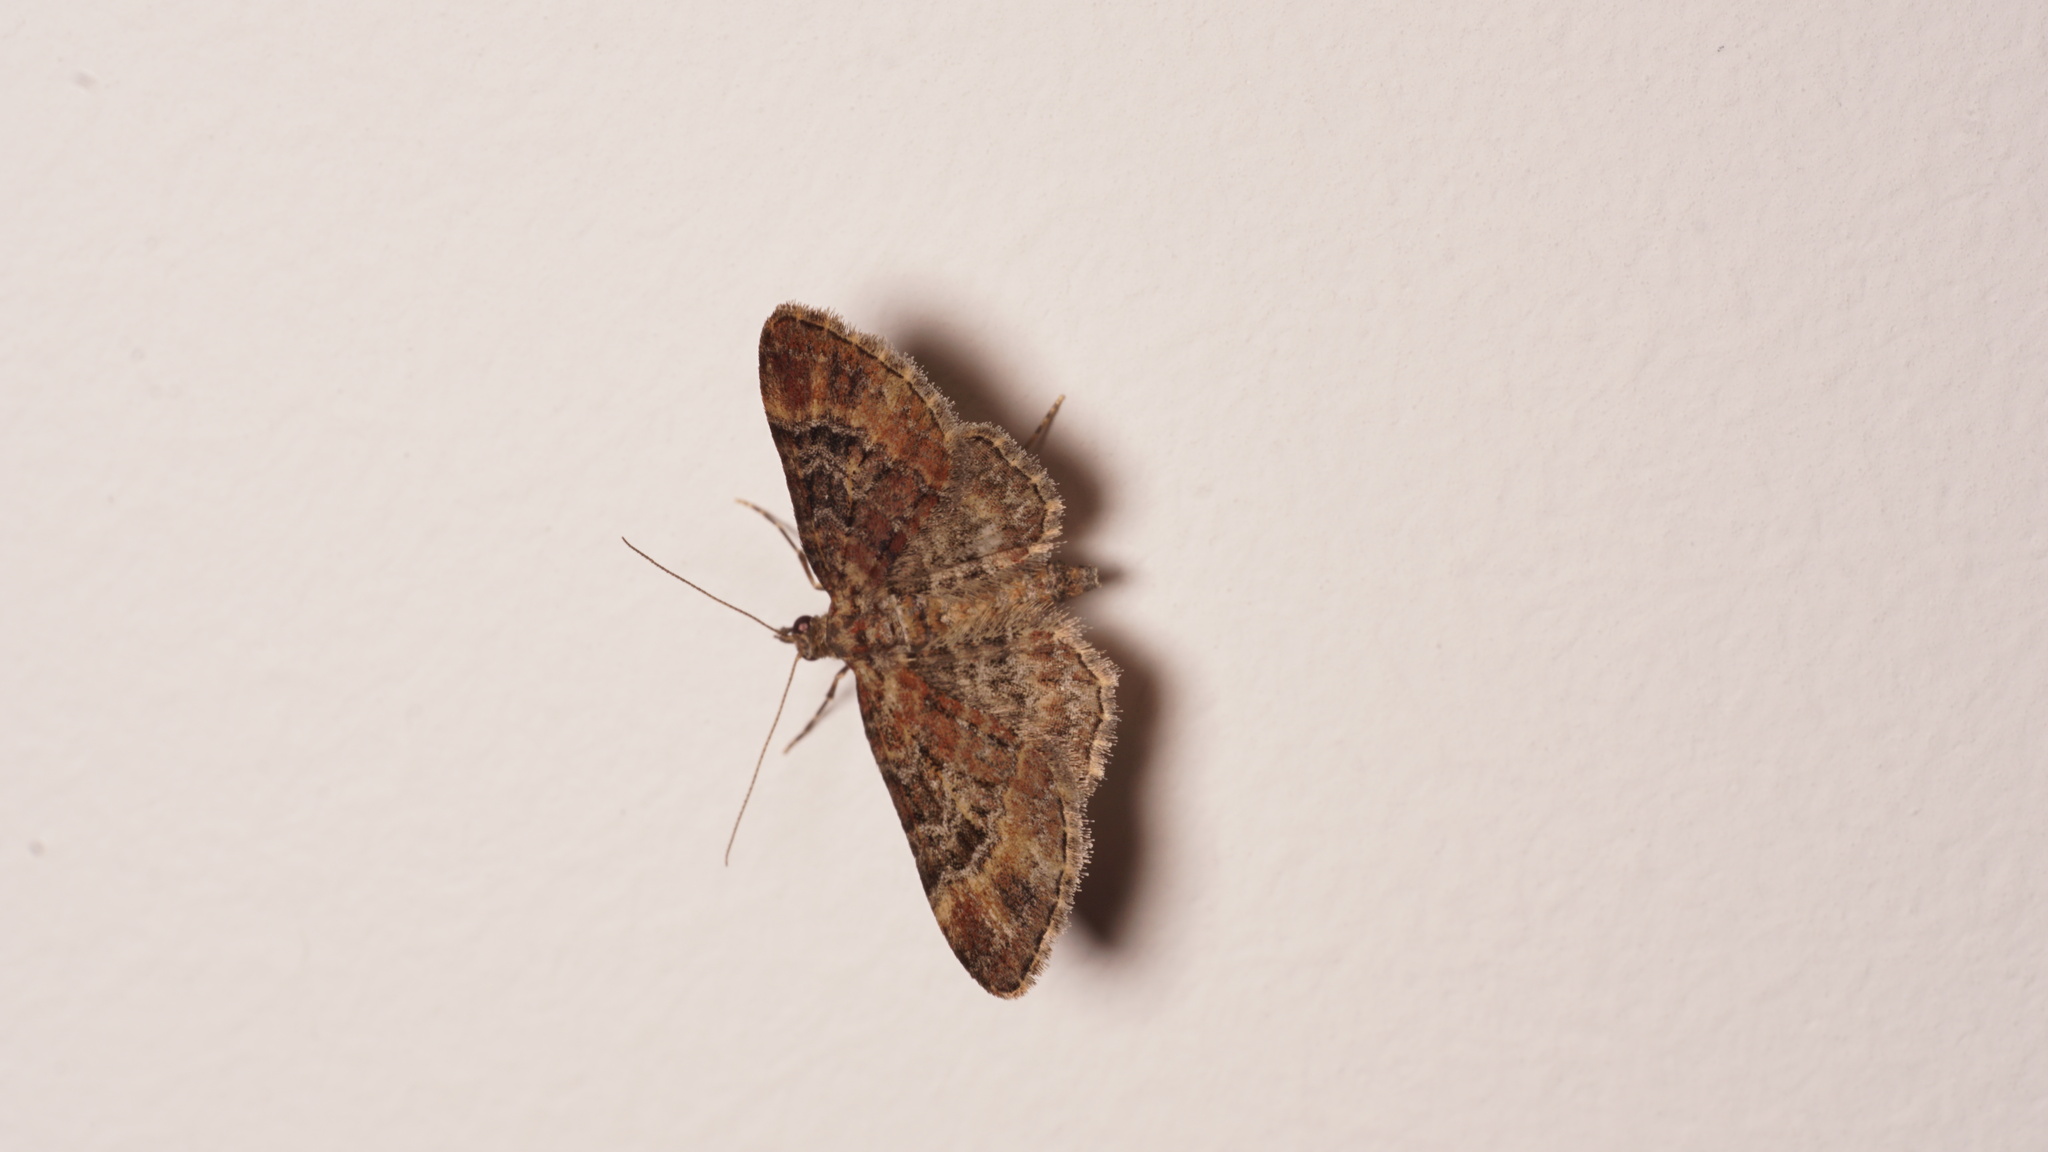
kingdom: Animalia
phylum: Arthropoda
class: Insecta
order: Lepidoptera
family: Geometridae
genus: Gymnoscelis
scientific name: Gymnoscelis rufifasciata
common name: Double-striped pug
